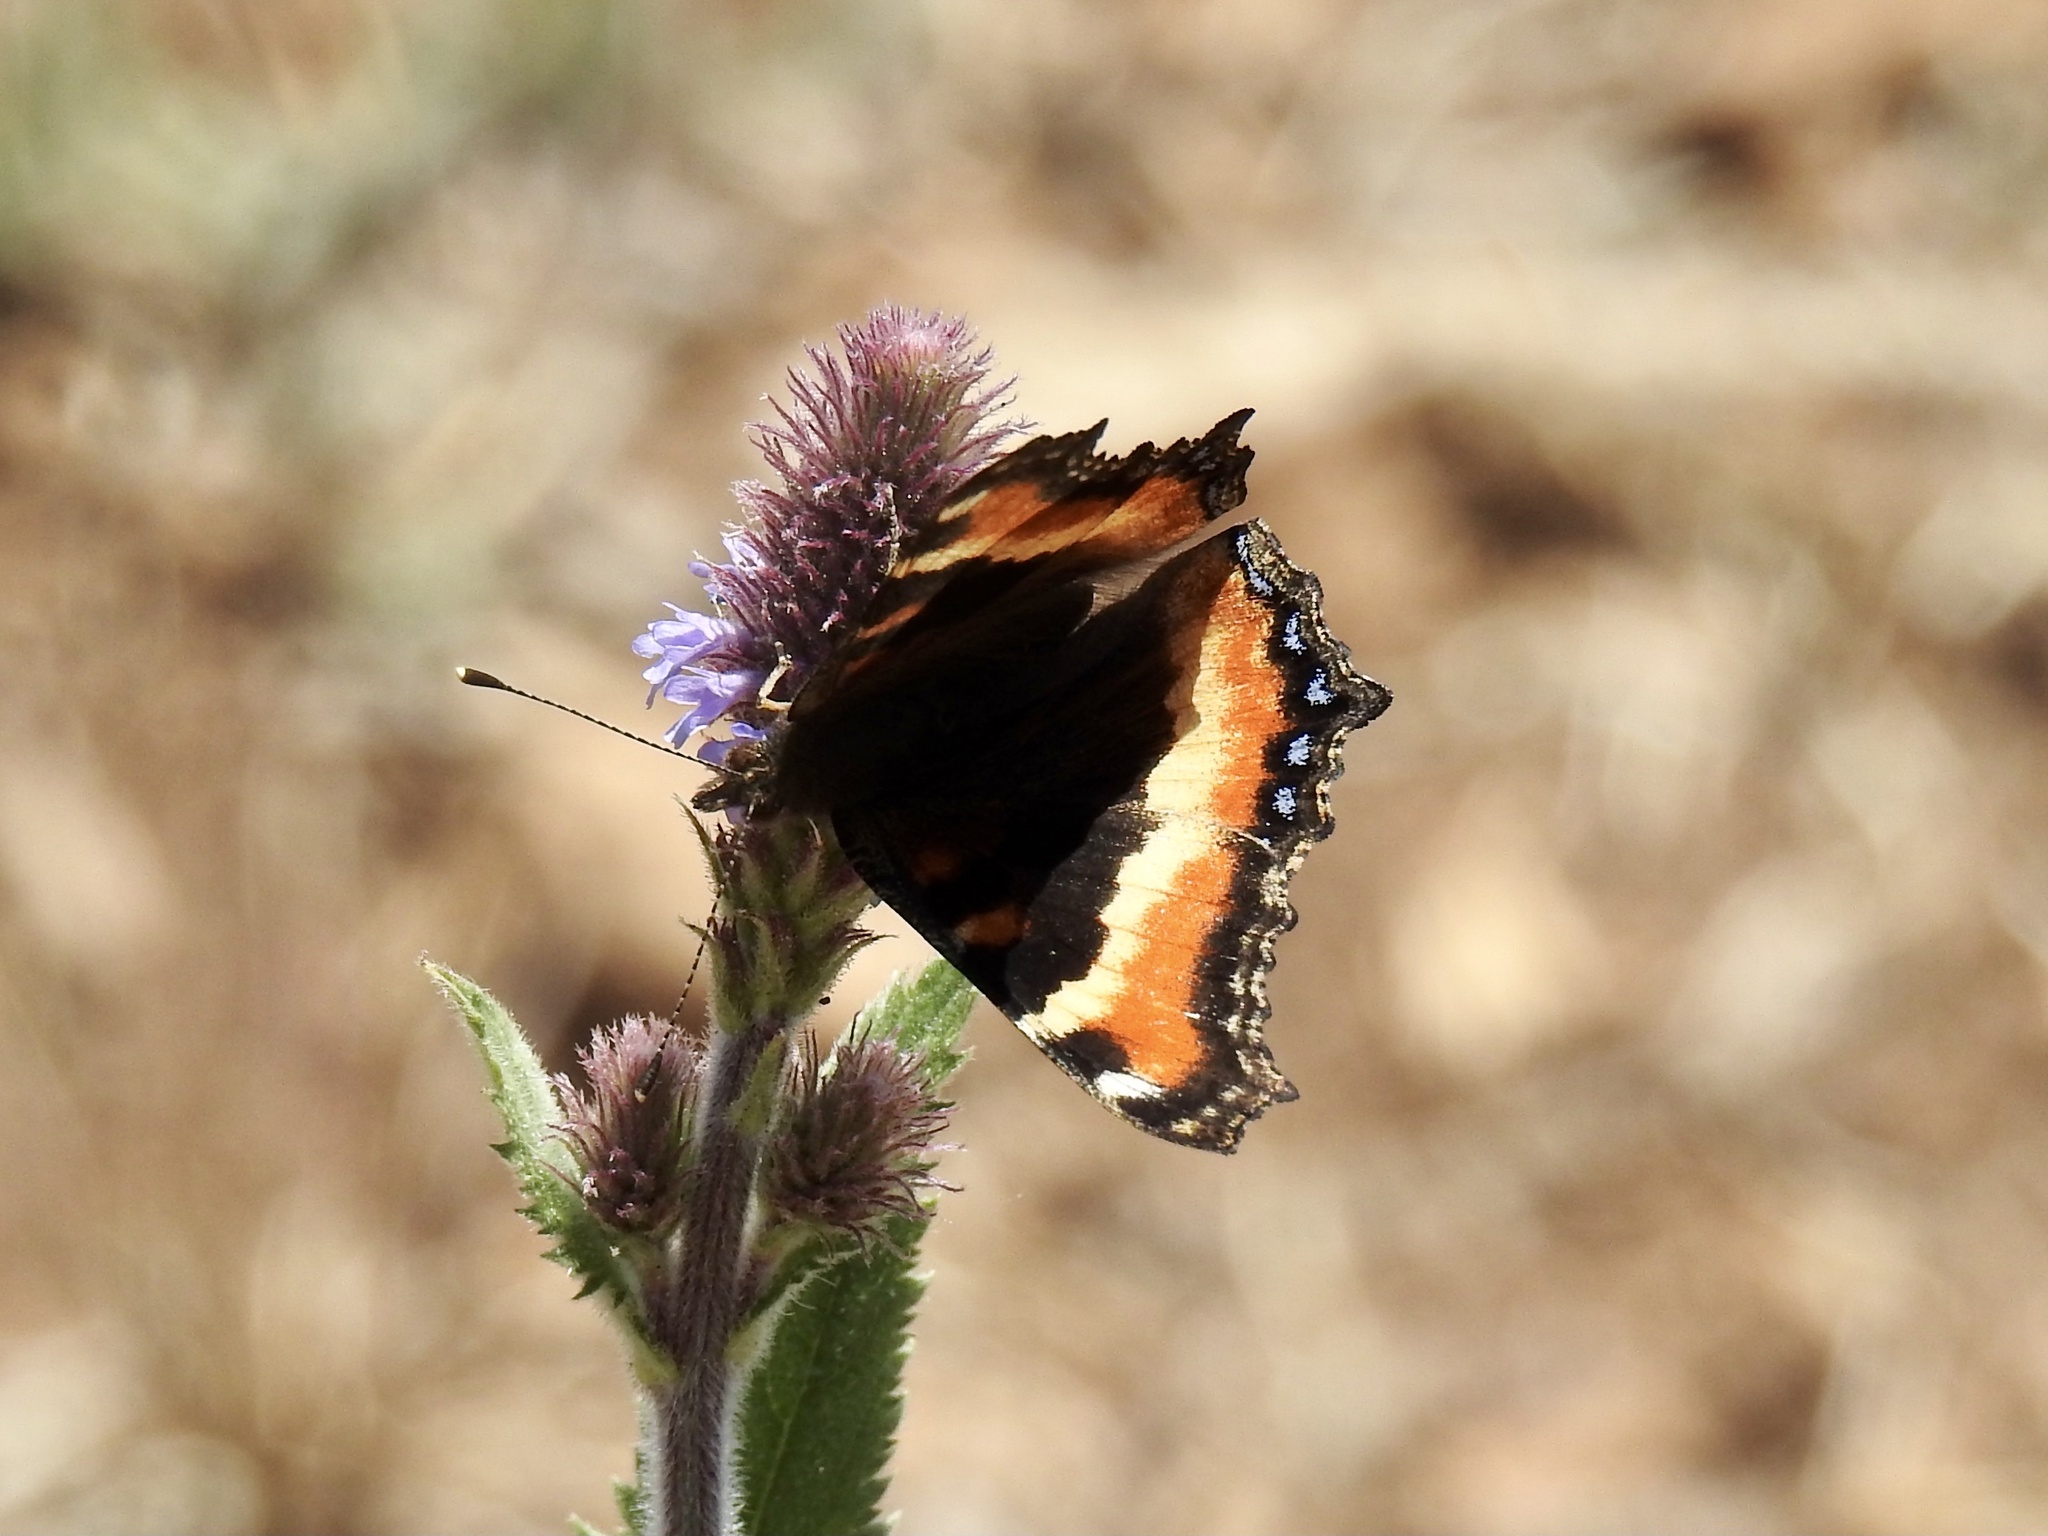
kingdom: Animalia
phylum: Arthropoda
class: Insecta
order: Lepidoptera
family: Nymphalidae
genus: Aglais
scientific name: Aglais milberti
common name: Milbert's tortoiseshell
